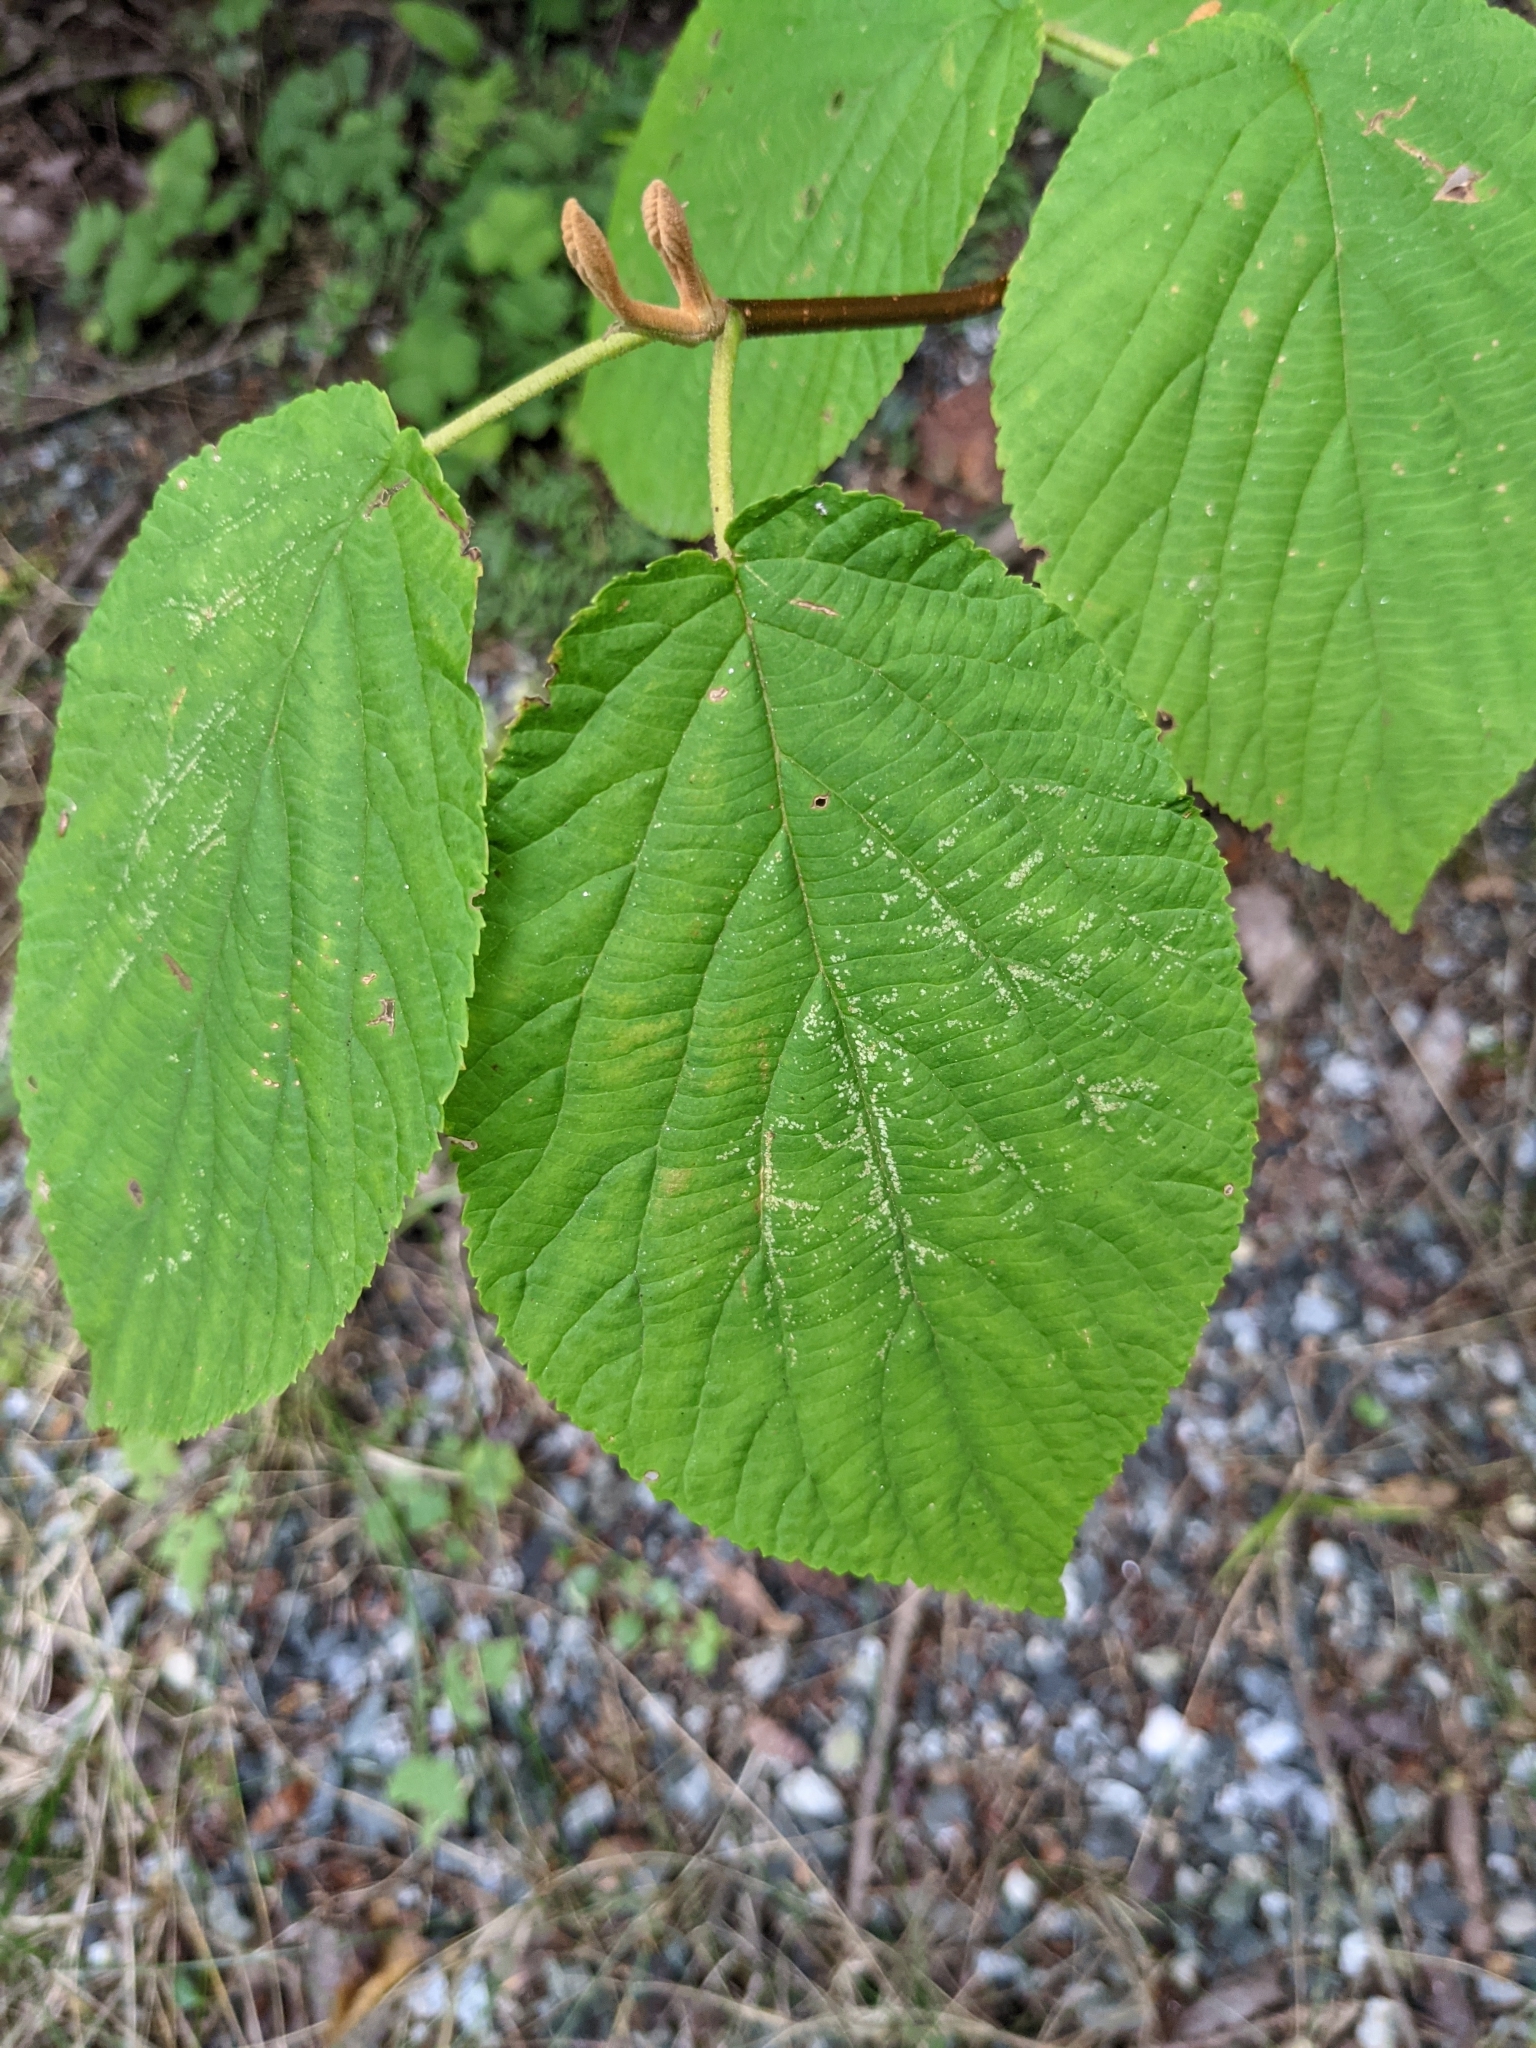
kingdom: Plantae
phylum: Tracheophyta
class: Magnoliopsida
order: Dipsacales
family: Viburnaceae
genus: Viburnum
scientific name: Viburnum lantanoides
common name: Hobblebush
